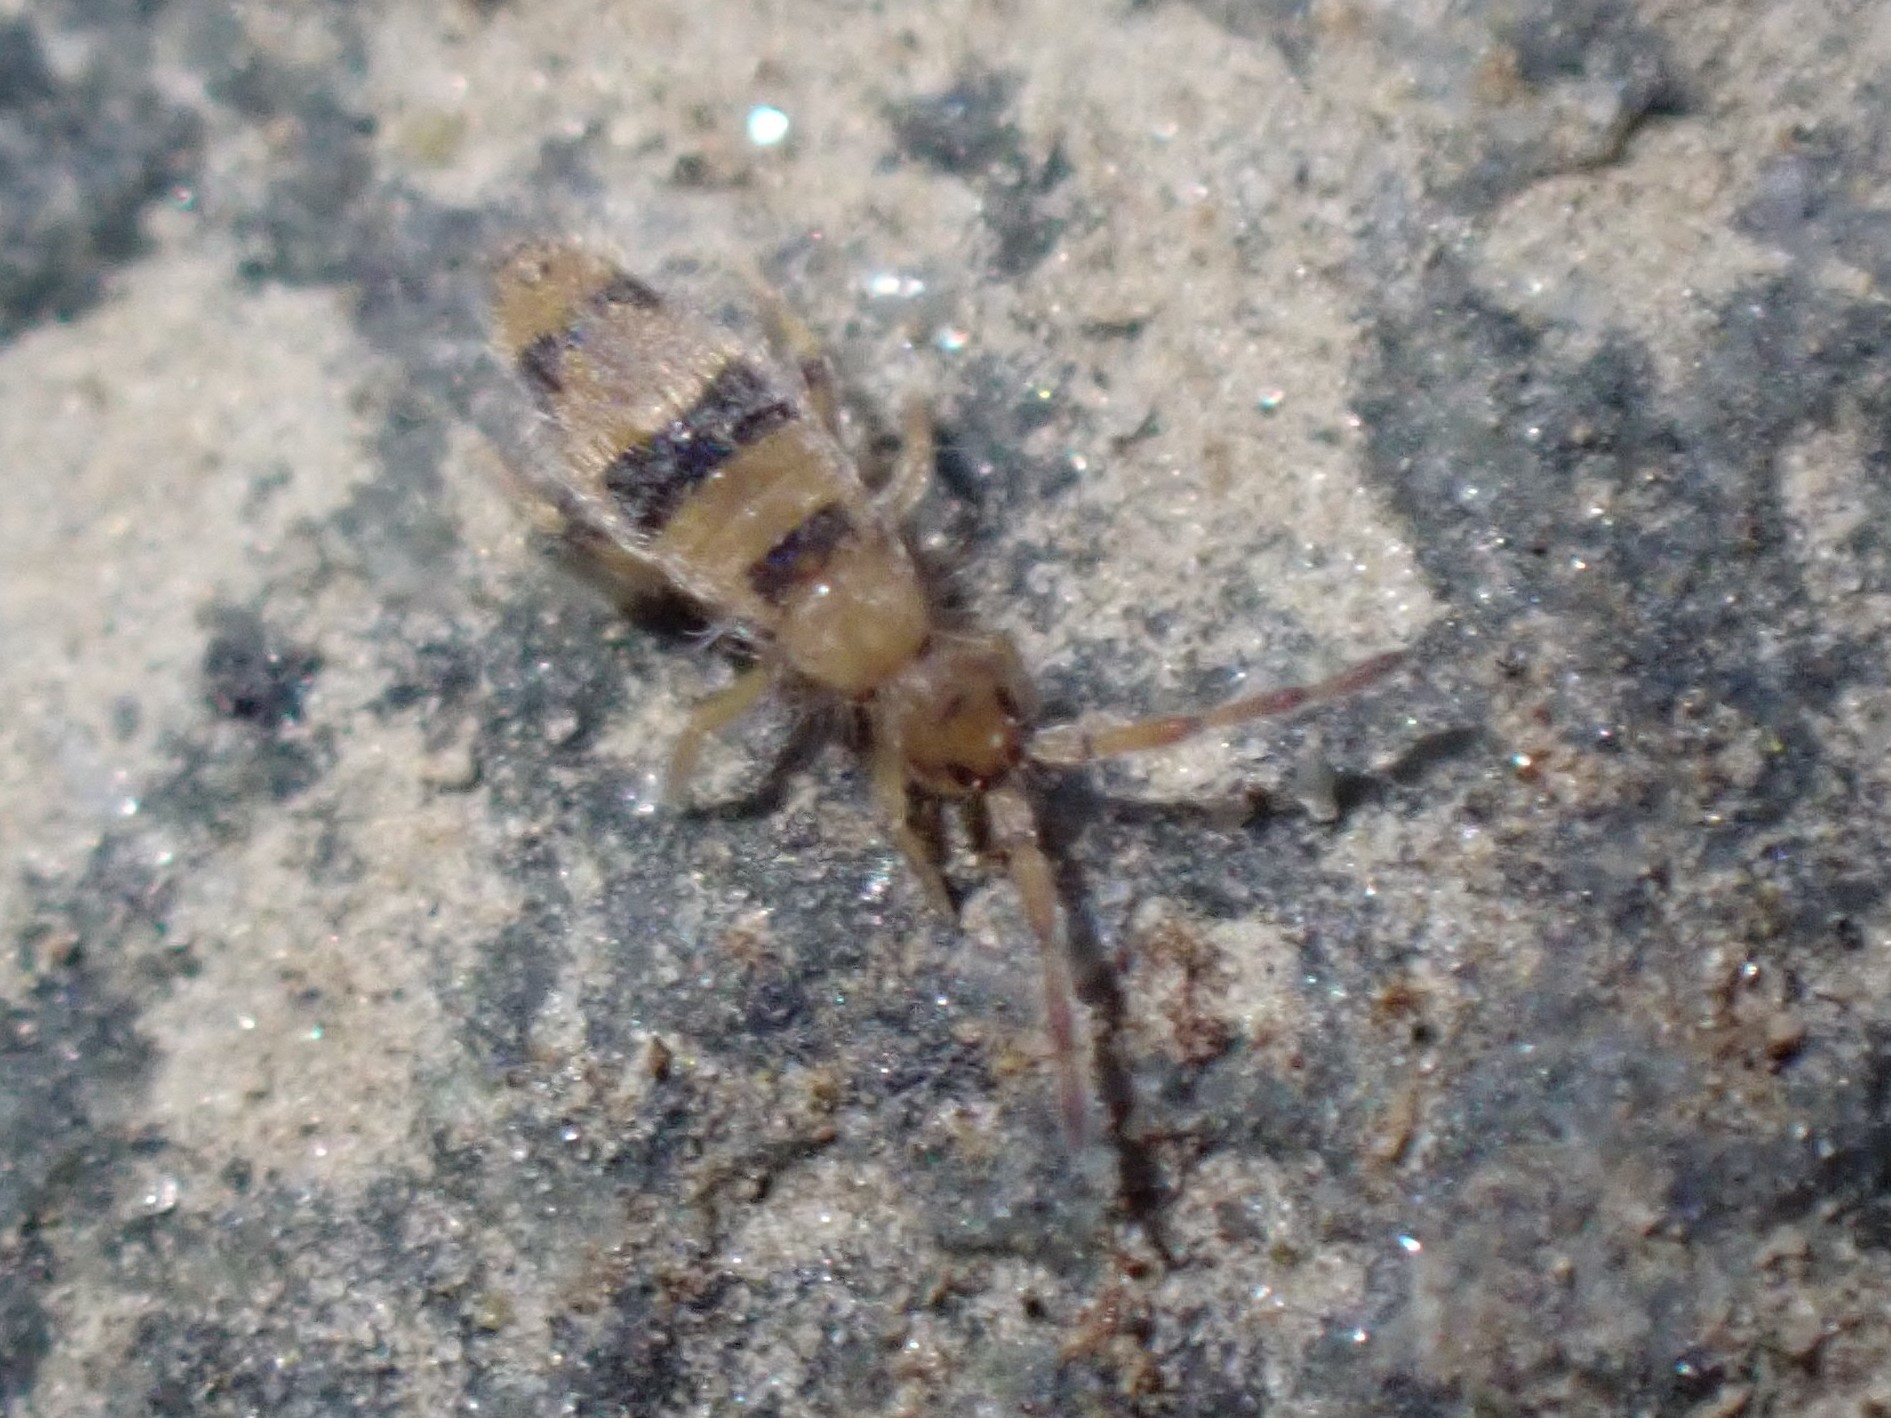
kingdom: Animalia
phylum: Arthropoda
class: Collembola
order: Entomobryomorpha
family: Entomobryidae
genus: Entomobrya
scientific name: Entomobrya triangularis
